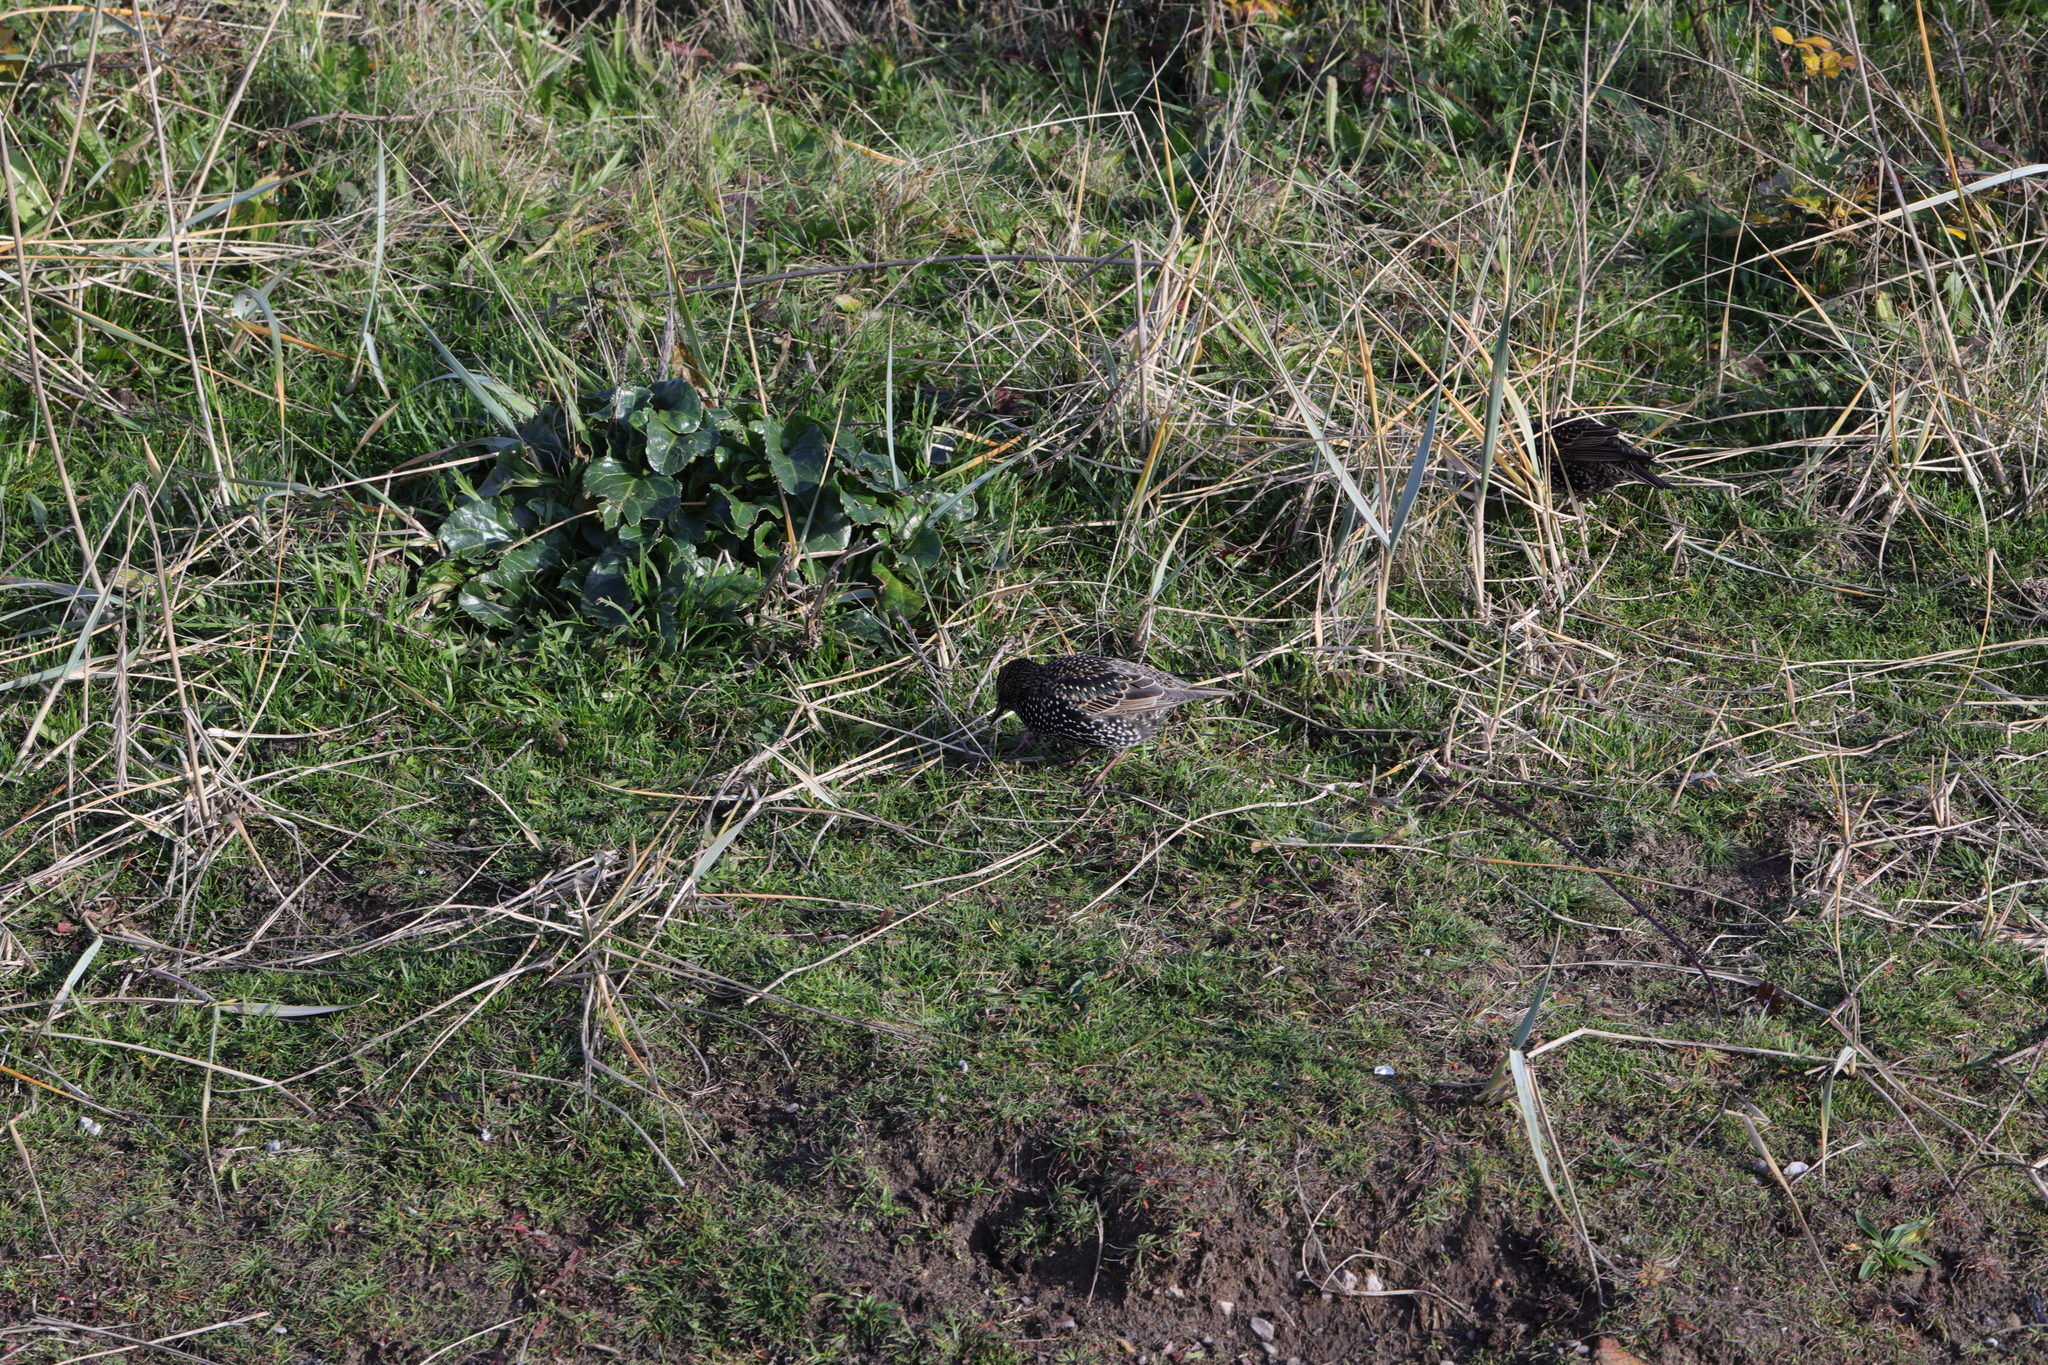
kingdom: Animalia
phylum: Chordata
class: Aves
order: Passeriformes
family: Sturnidae
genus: Sturnus
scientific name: Sturnus vulgaris
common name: Common starling
